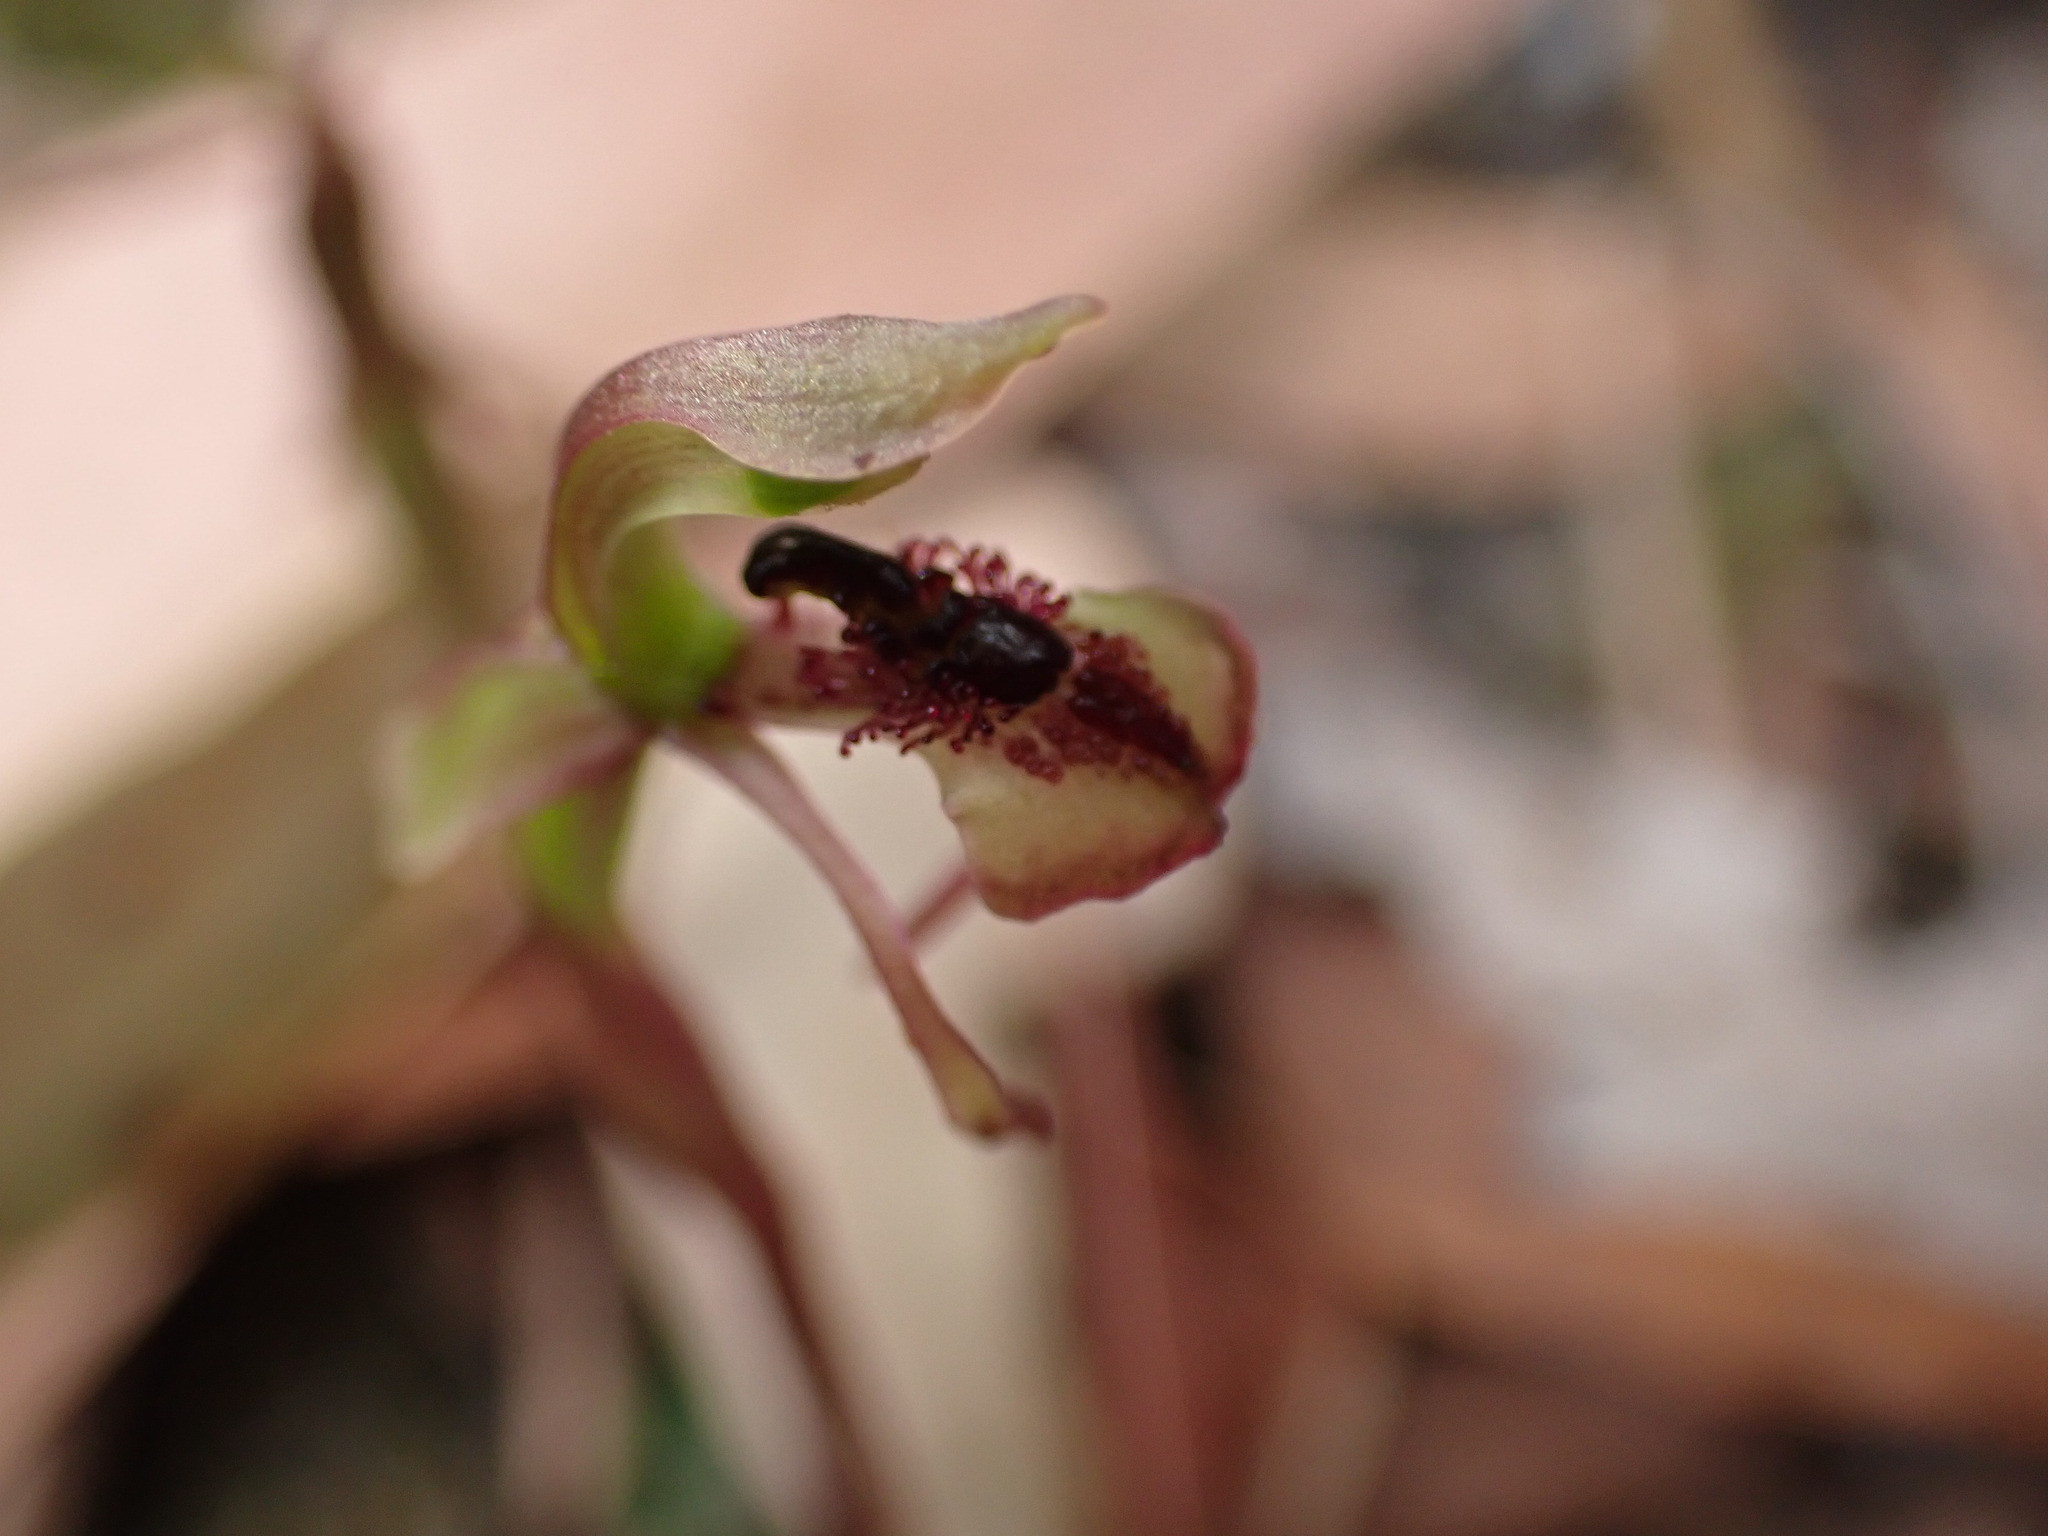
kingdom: Plantae
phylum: Tracheophyta
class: Liliopsida
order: Asparagales
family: Orchidaceae
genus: Chiloglottis
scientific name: Chiloglottis reflexa
